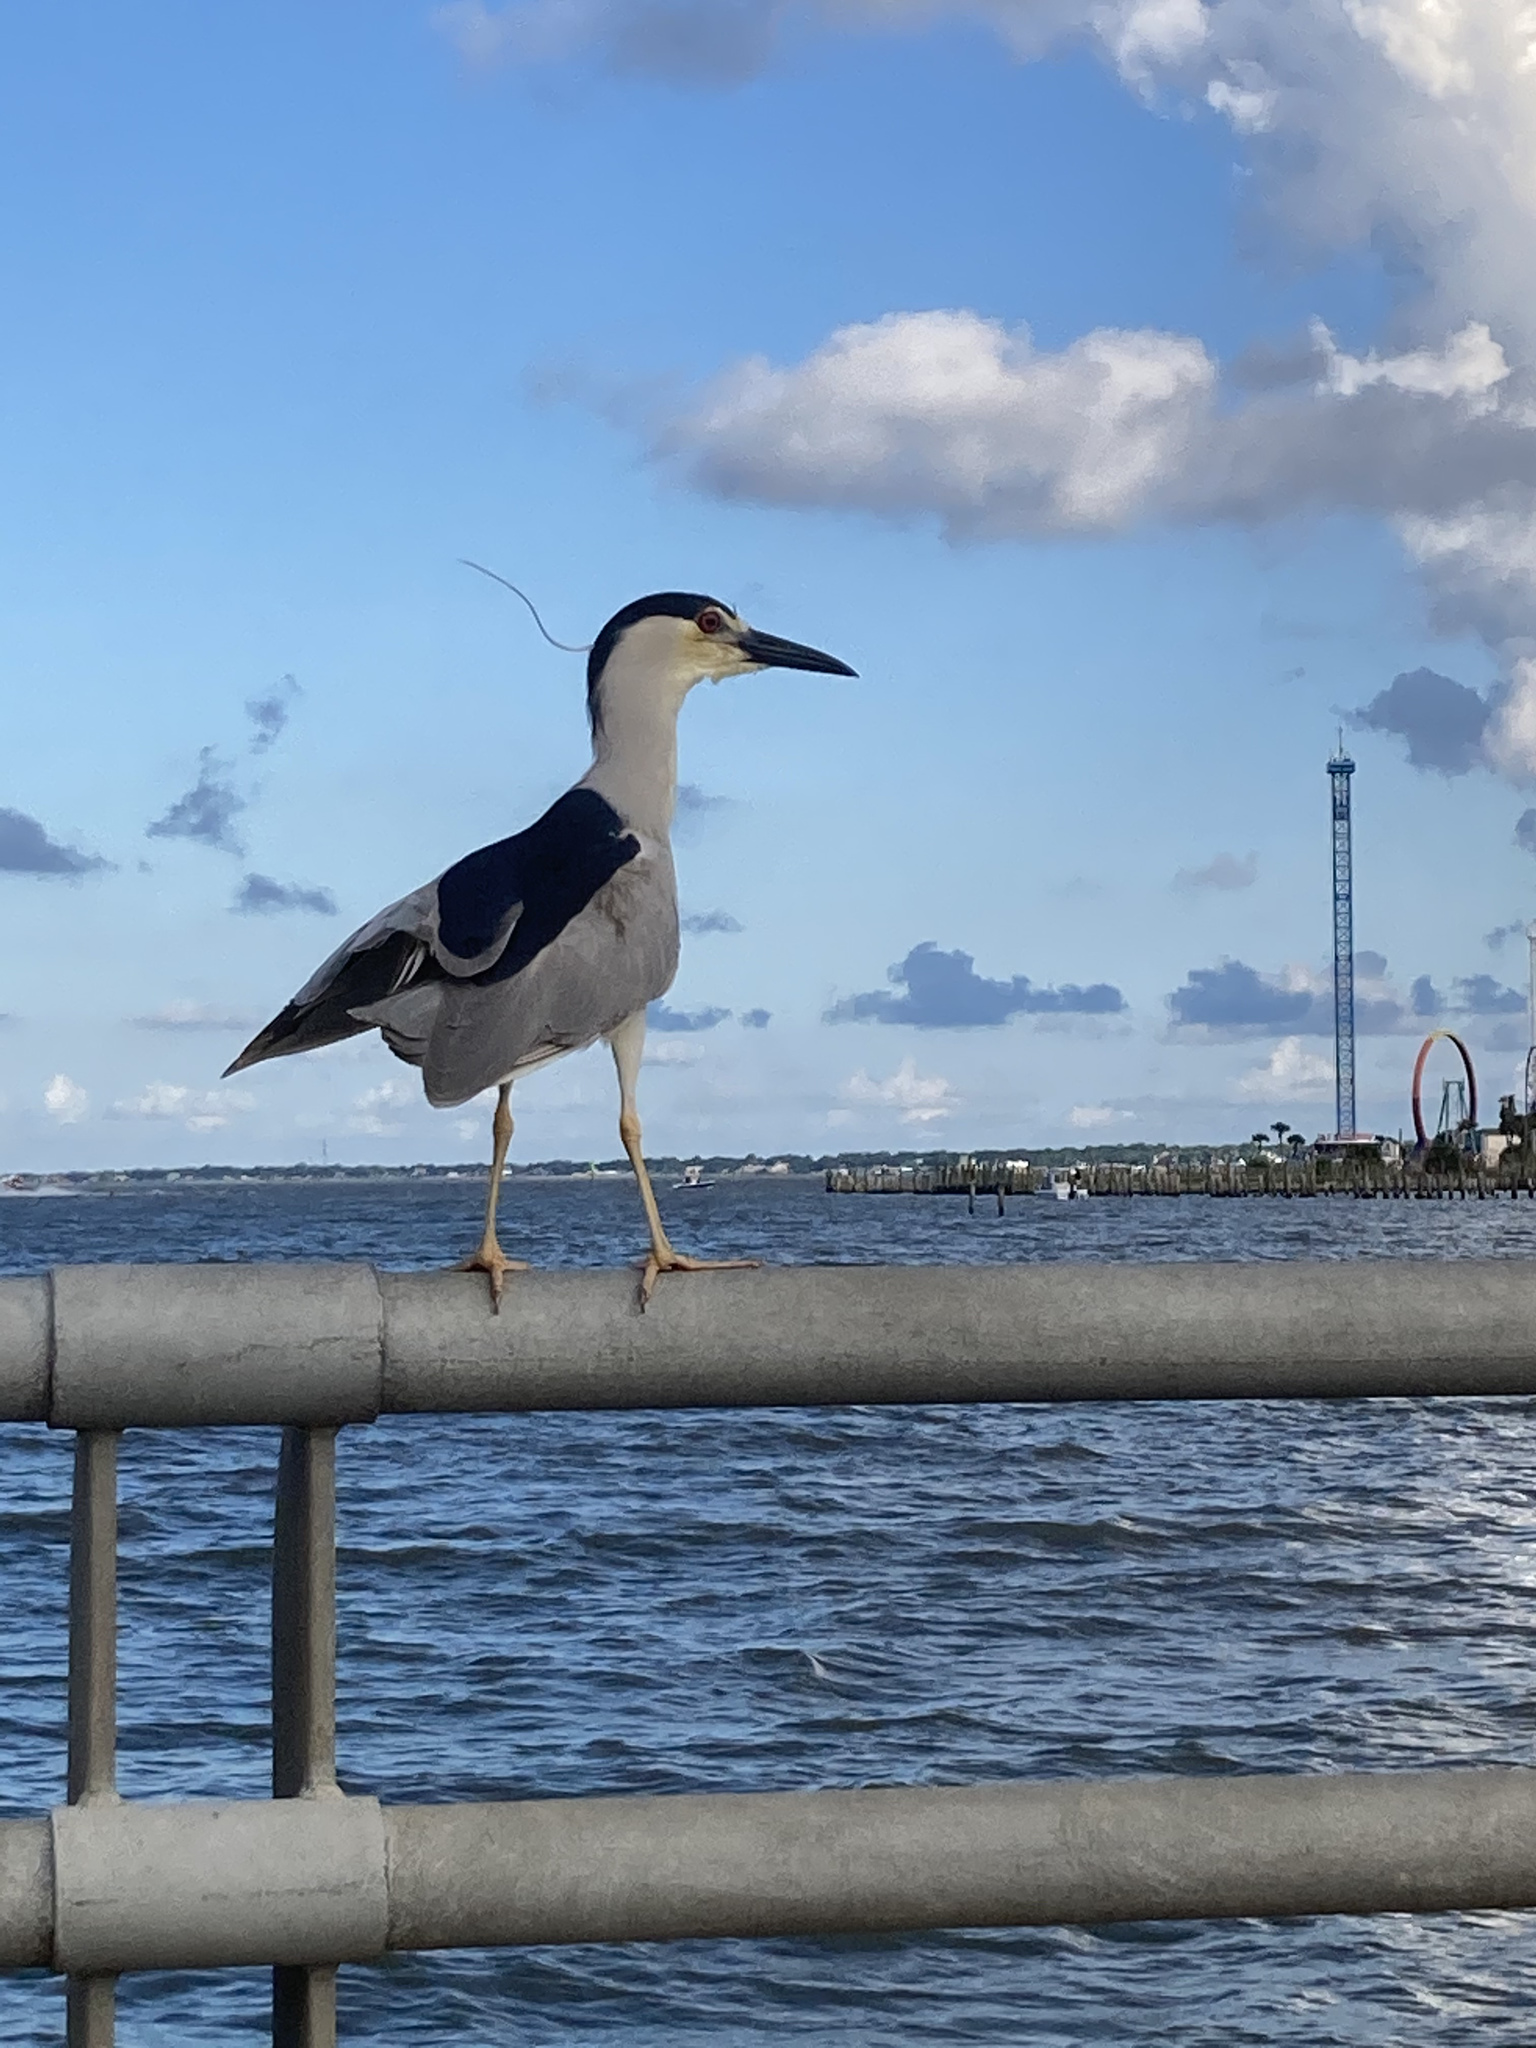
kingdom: Animalia
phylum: Chordata
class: Aves
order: Pelecaniformes
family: Ardeidae
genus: Nycticorax
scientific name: Nycticorax nycticorax
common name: Black-crowned night heron
